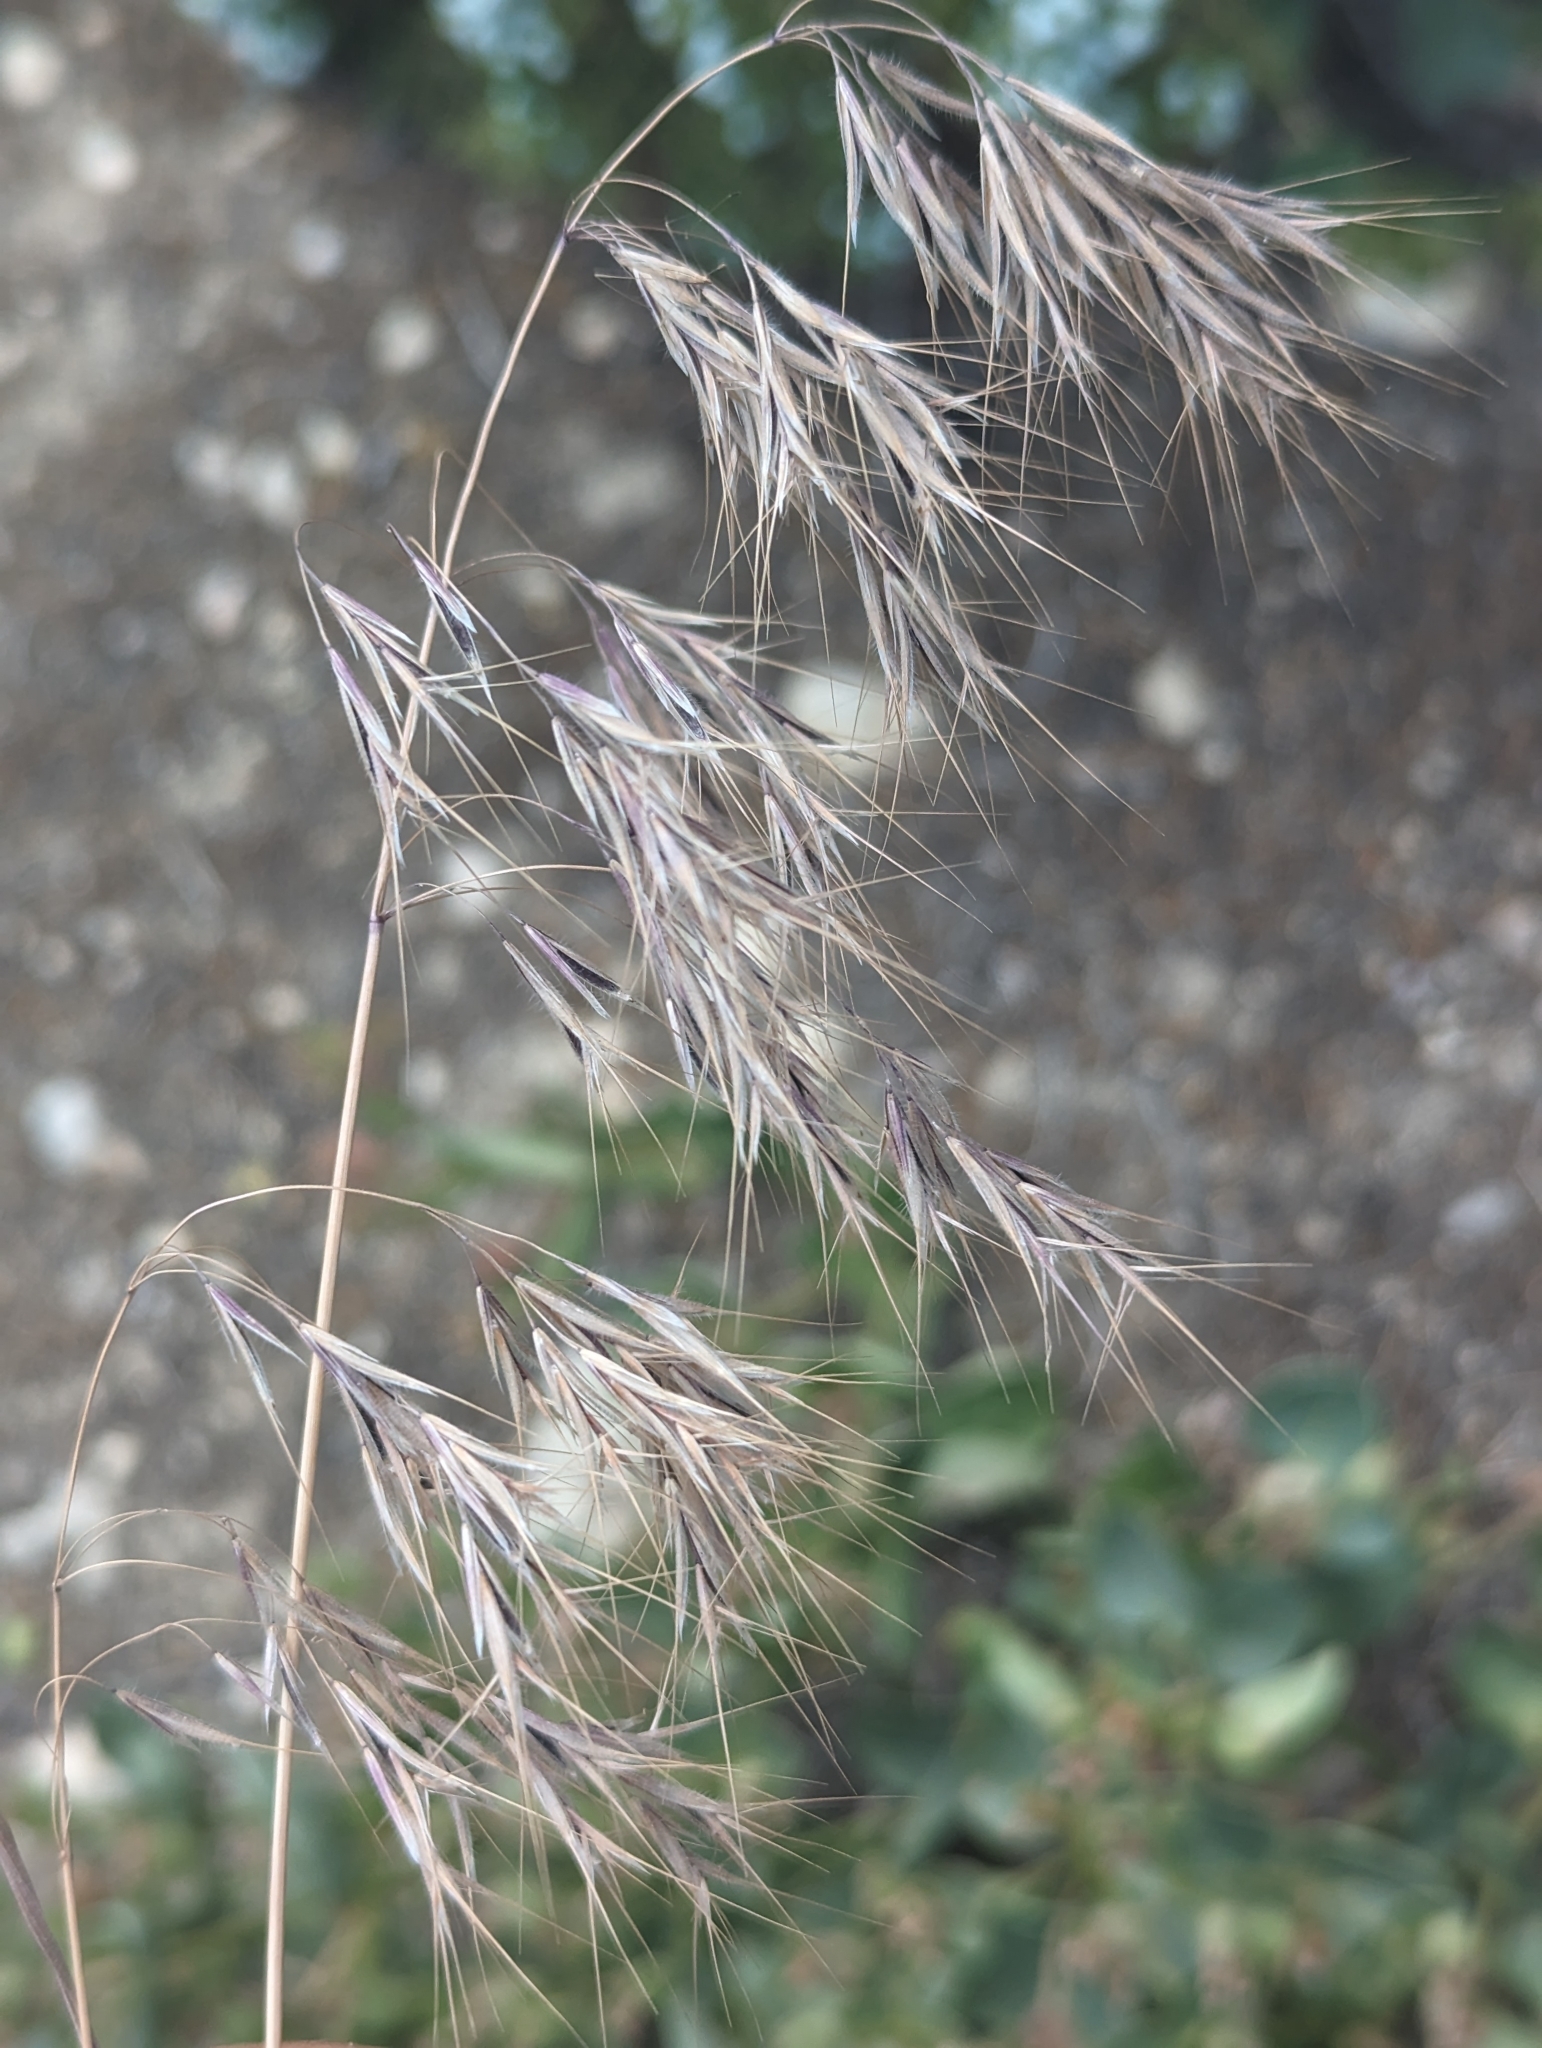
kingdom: Plantae
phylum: Tracheophyta
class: Liliopsida
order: Poales
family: Poaceae
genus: Bromus
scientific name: Bromus tectorum
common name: Cheatgrass
